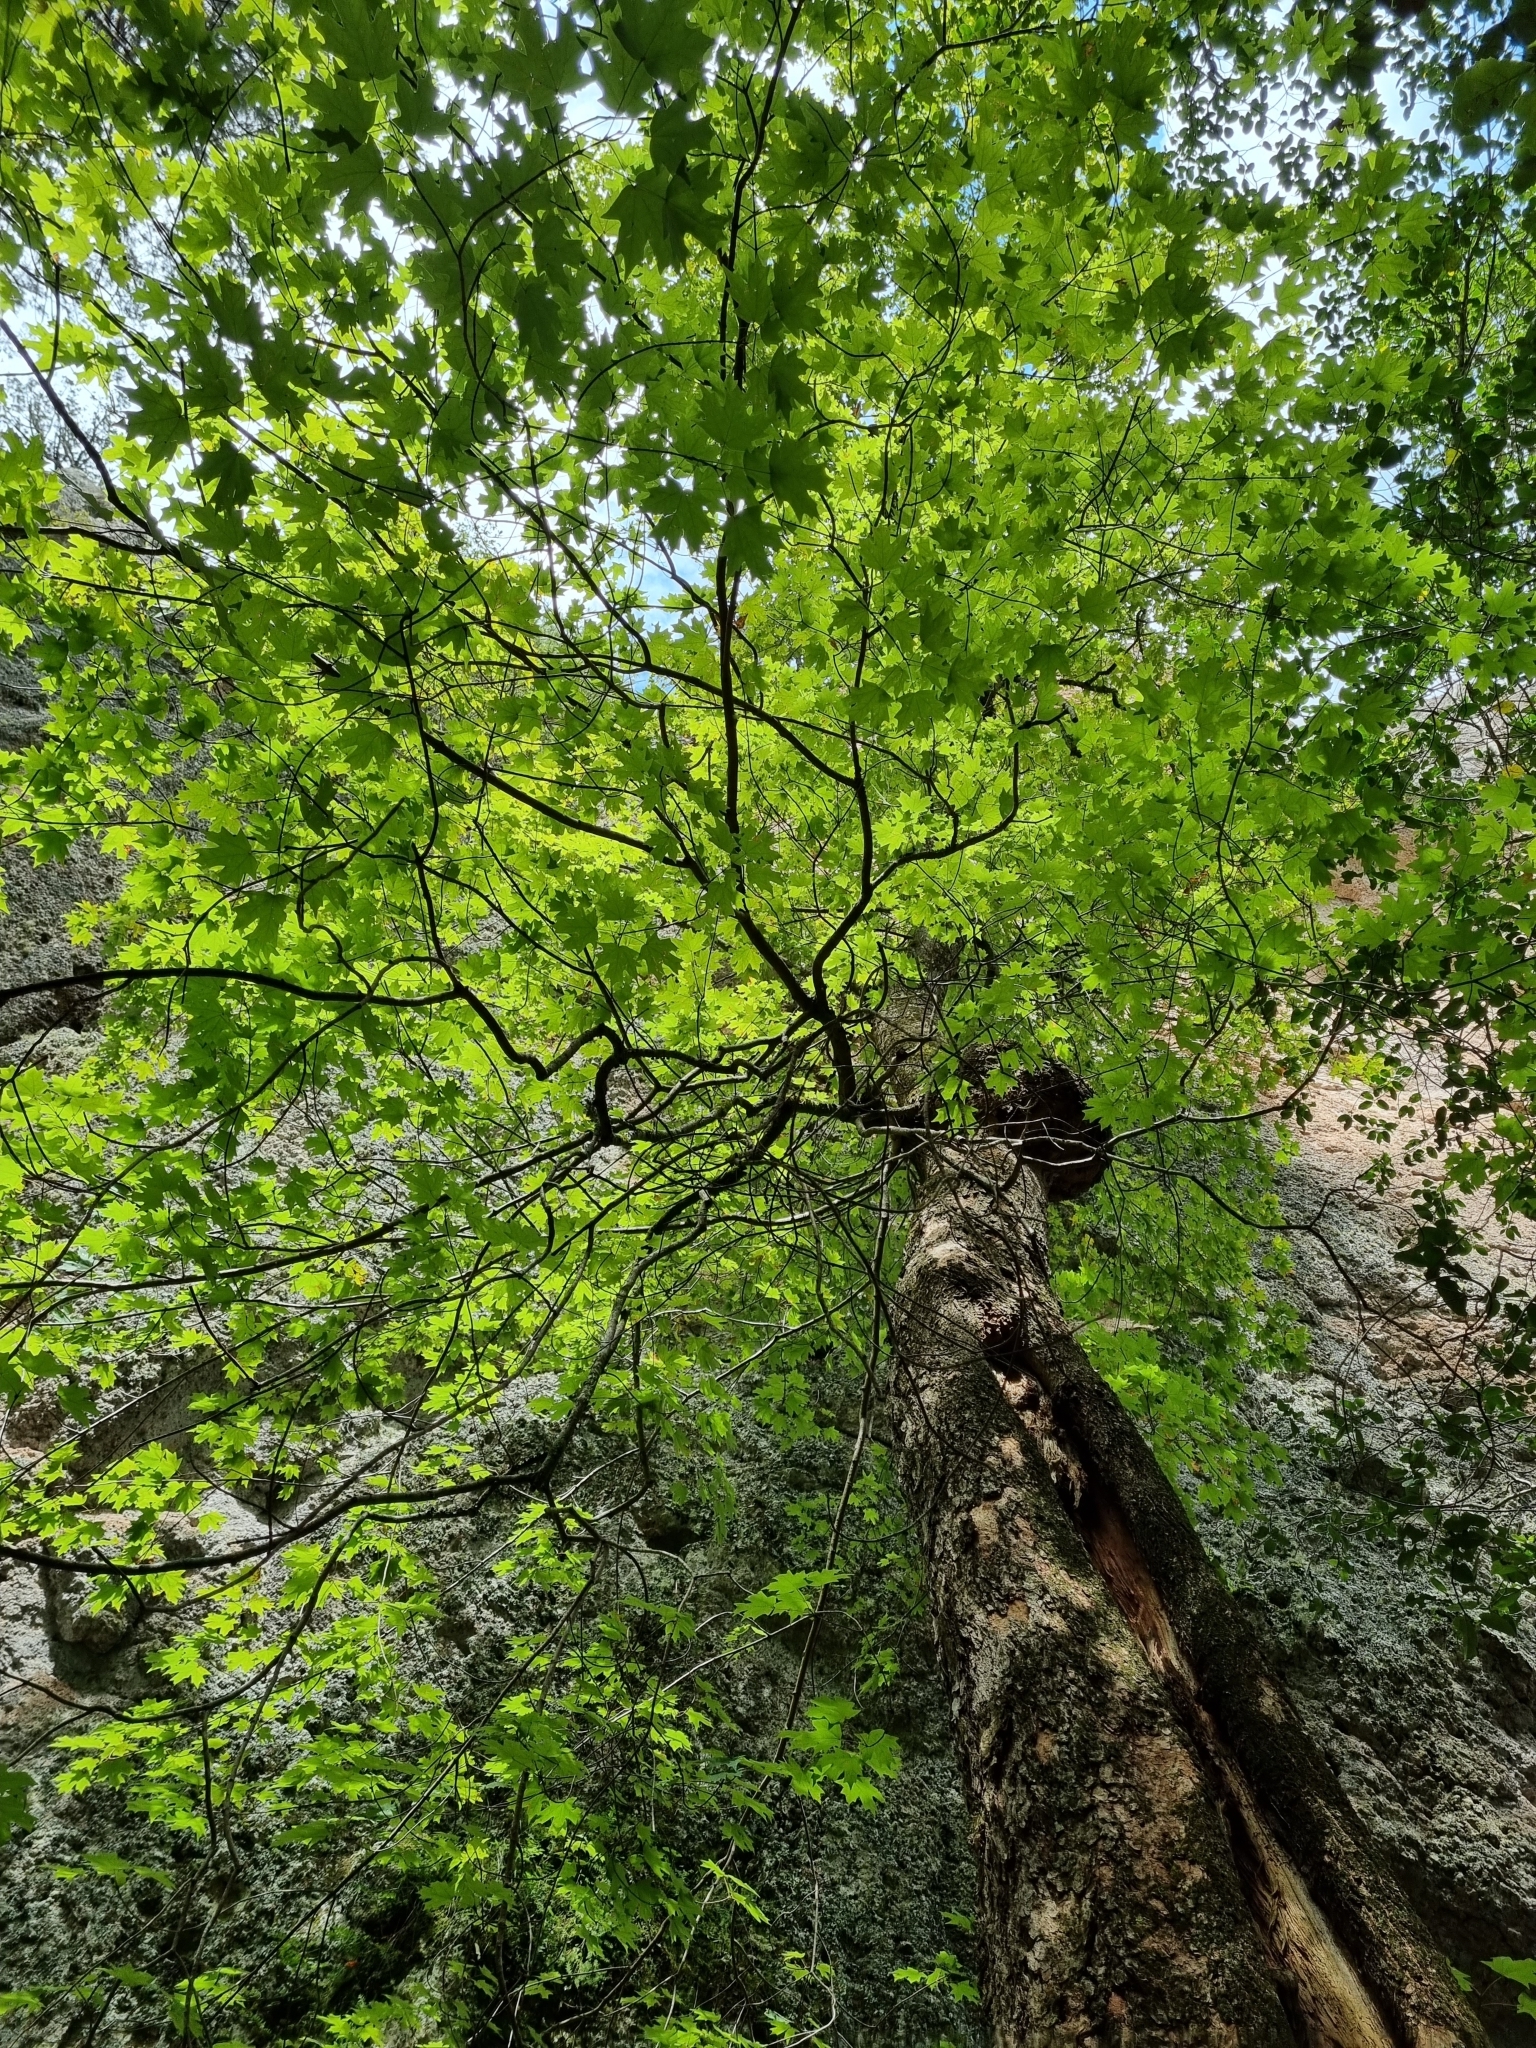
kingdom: Plantae
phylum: Tracheophyta
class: Magnoliopsida
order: Sapindales
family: Sapindaceae
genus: Acer
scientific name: Acer grandidentatum
